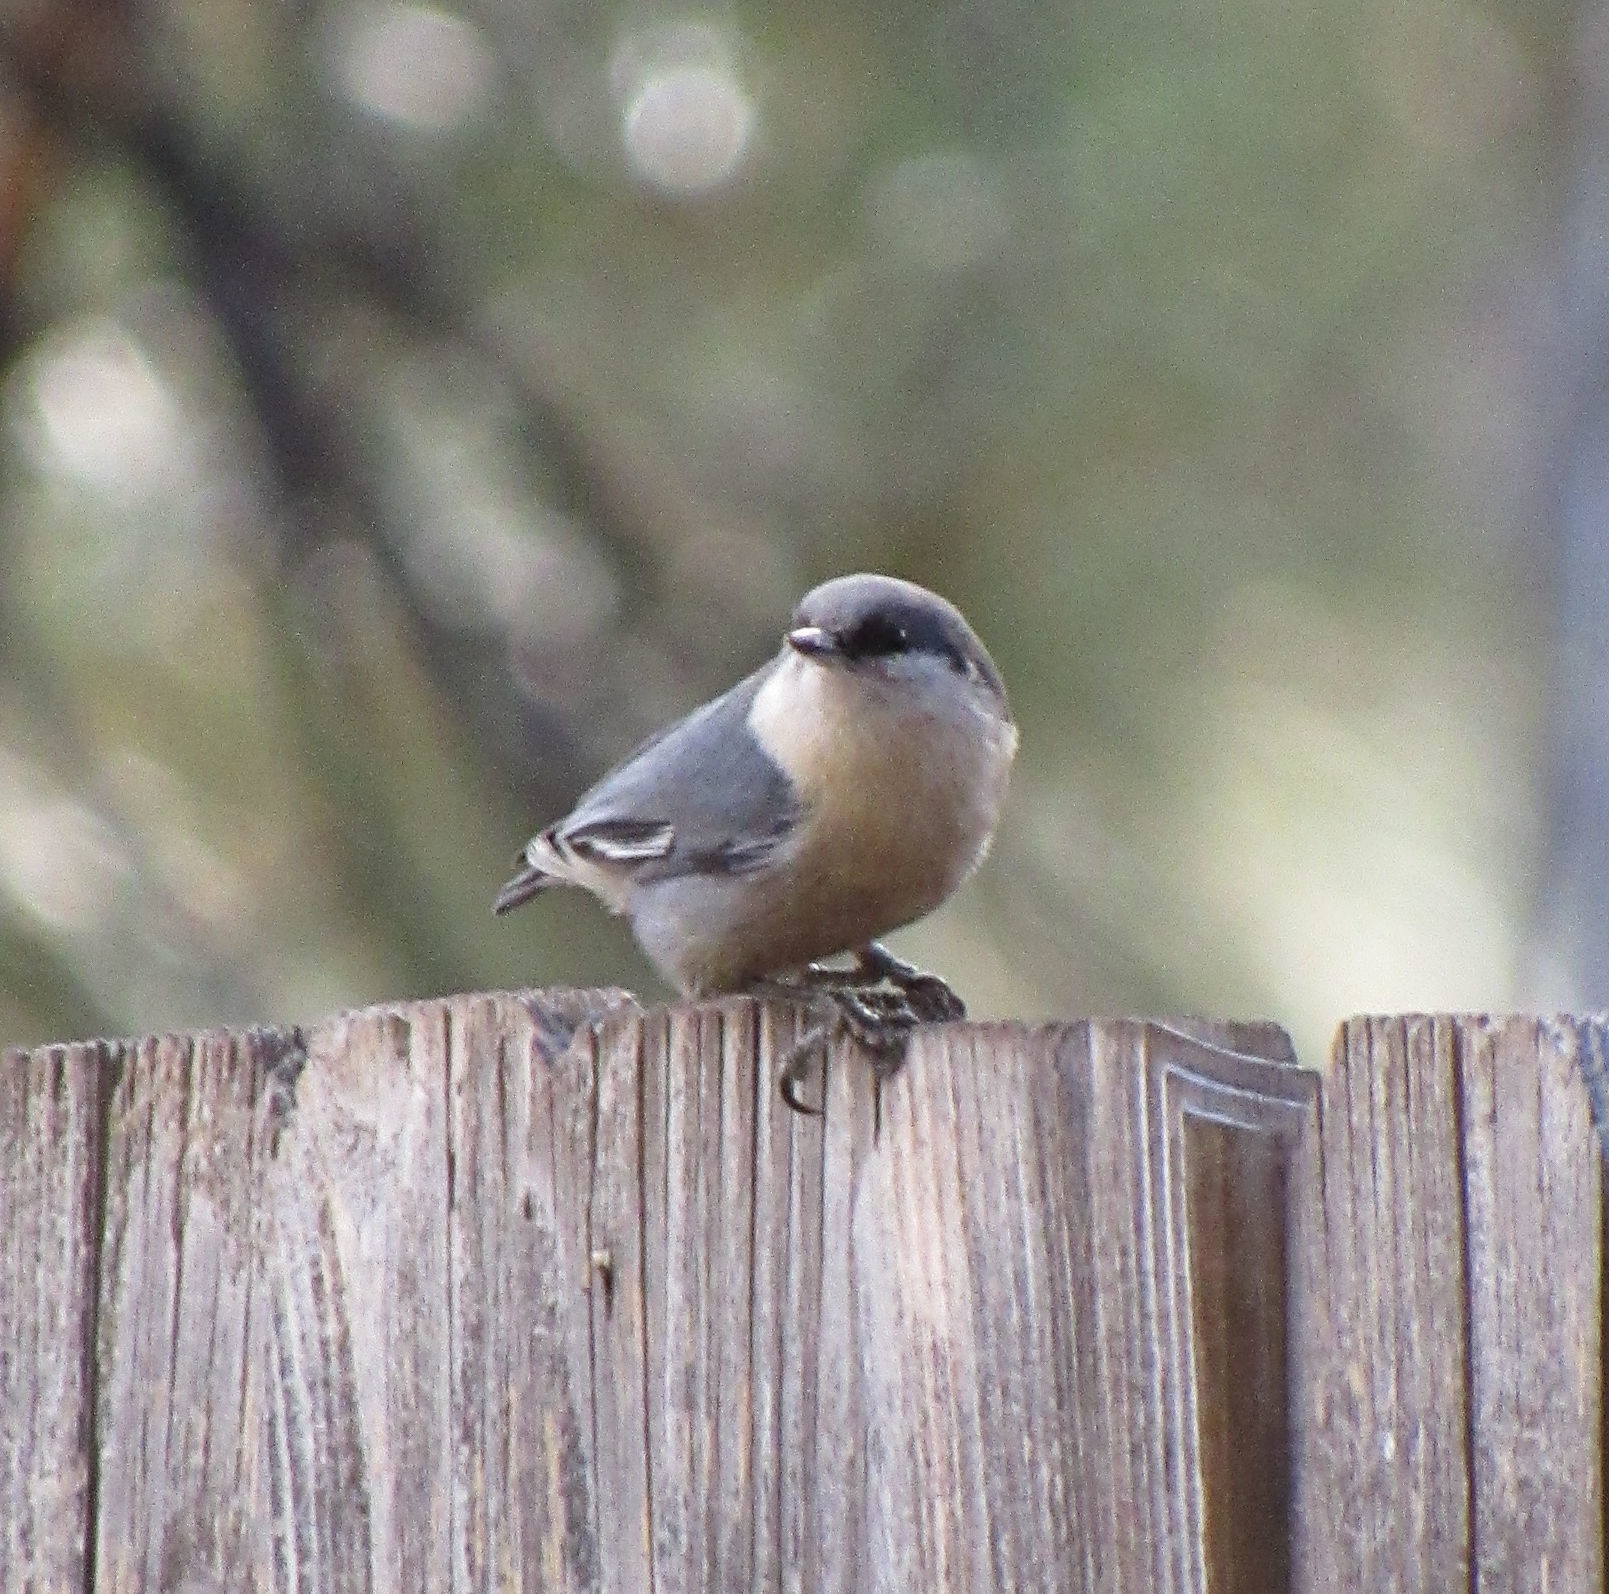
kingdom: Animalia
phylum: Chordata
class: Aves
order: Passeriformes
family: Sittidae
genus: Sitta
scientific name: Sitta pygmaea
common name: Pygmy nuthatch
